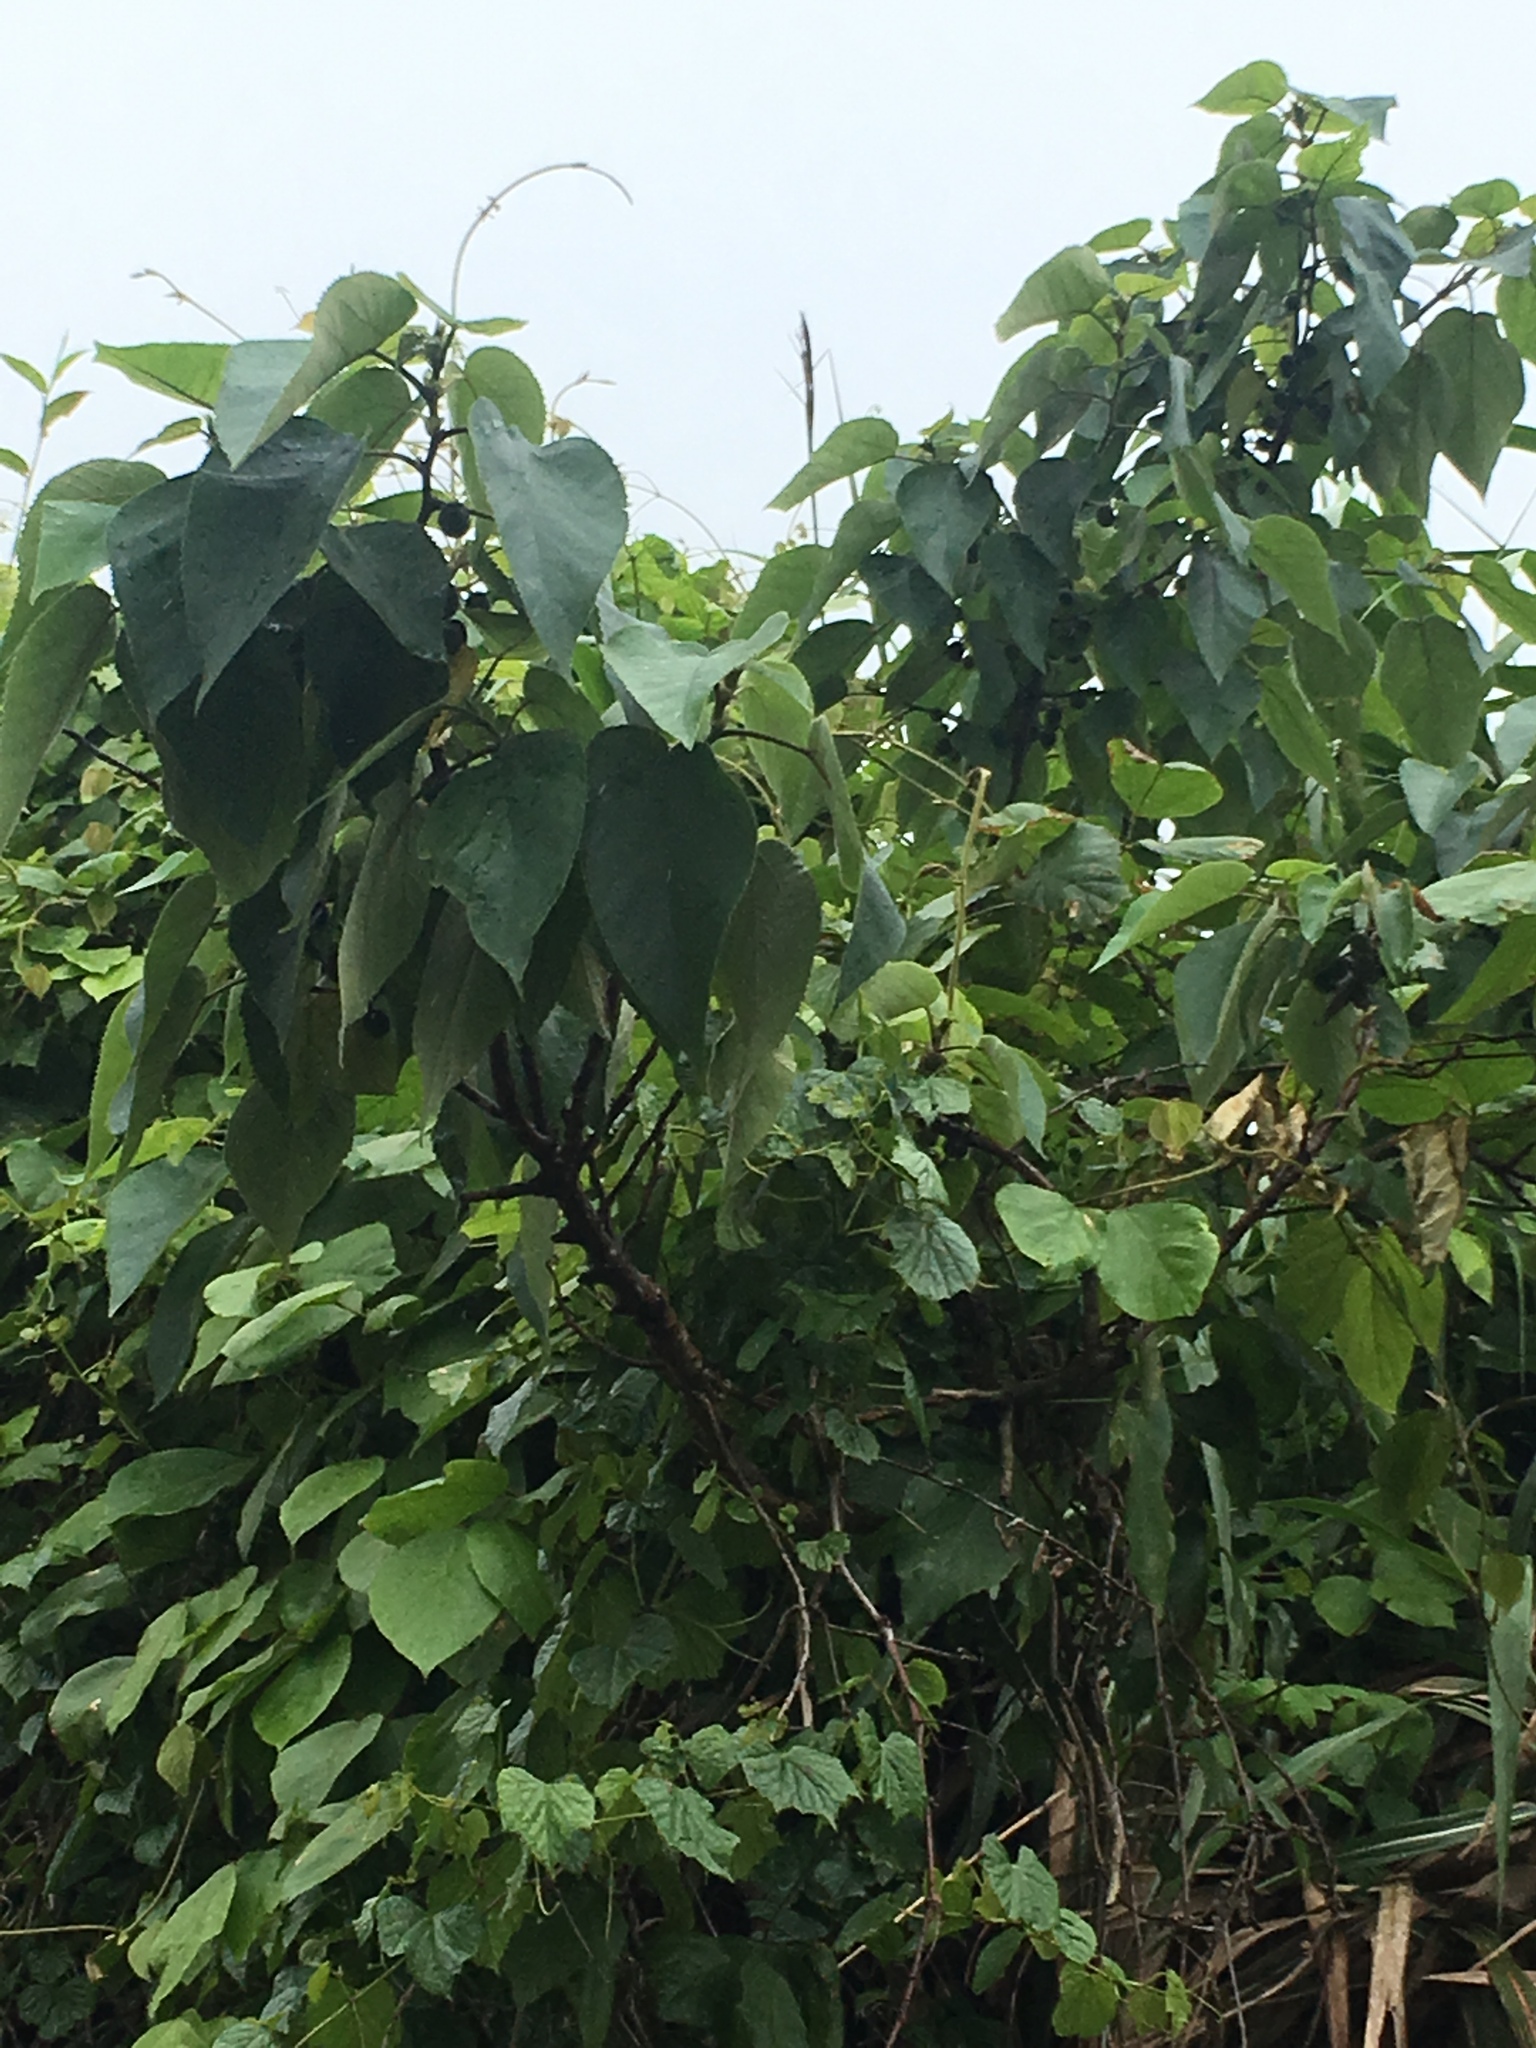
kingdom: Plantae
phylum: Tracheophyta
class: Magnoliopsida
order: Rosales
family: Moraceae
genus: Broussonetia
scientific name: Broussonetia papyrifera
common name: Paper mulberry
